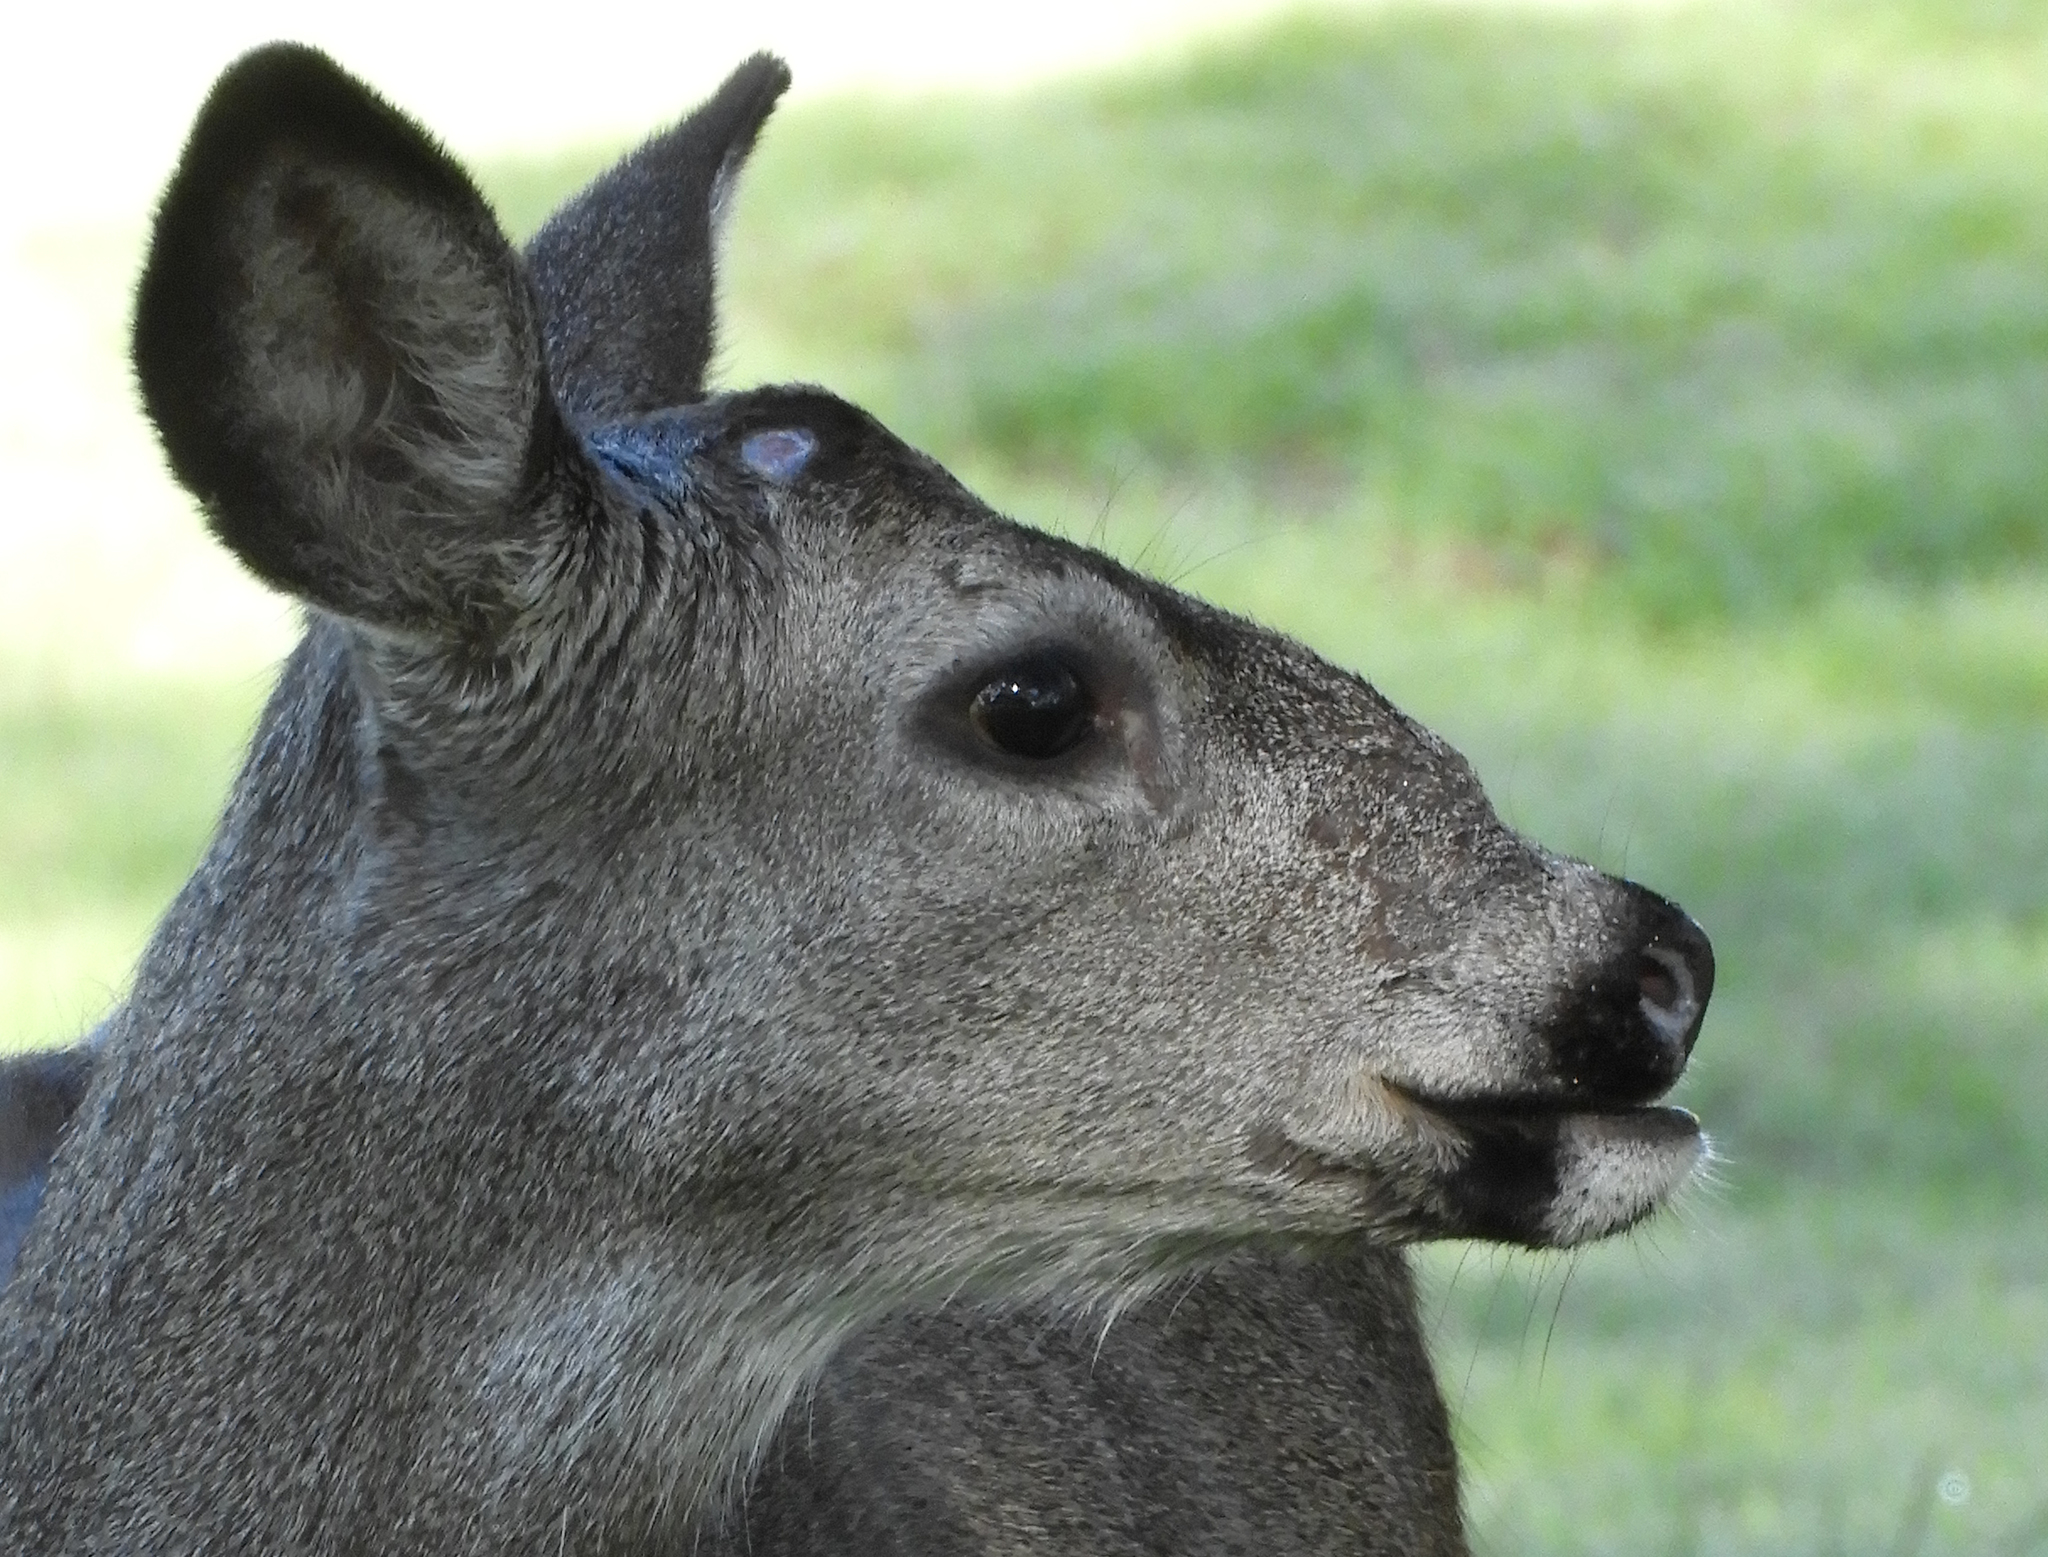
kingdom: Animalia
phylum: Chordata
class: Mammalia
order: Artiodactyla
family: Cervidae
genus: Odocoileus
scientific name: Odocoileus hemionus
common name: Mule deer
